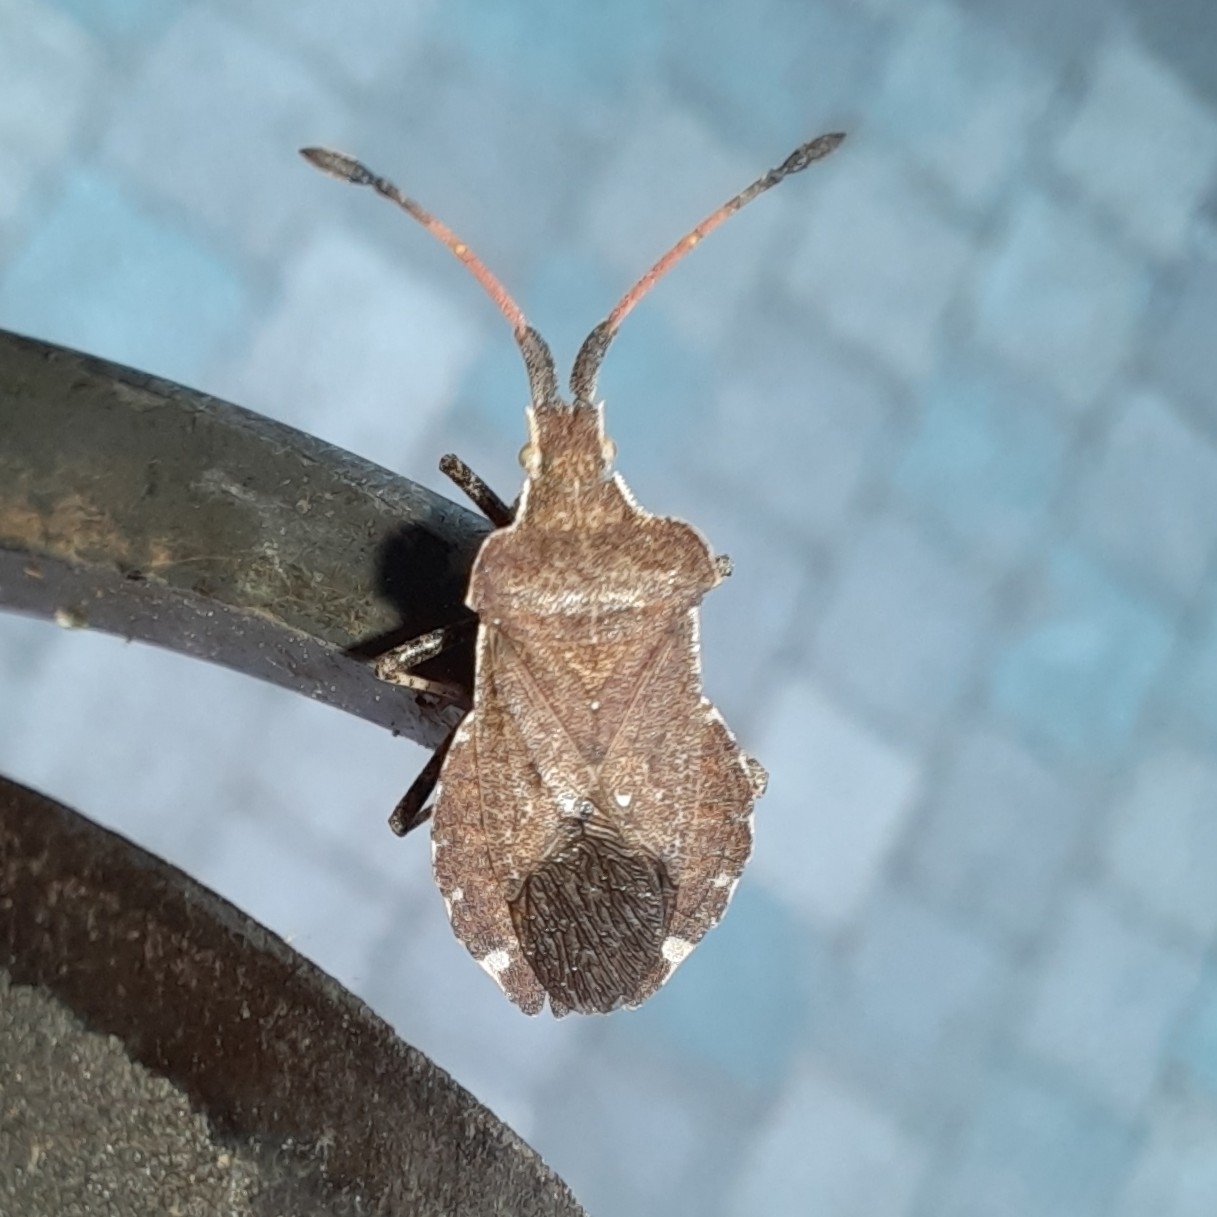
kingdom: Animalia
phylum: Arthropoda
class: Insecta
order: Hemiptera
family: Coreidae
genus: Enoplops
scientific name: Enoplops scapha
